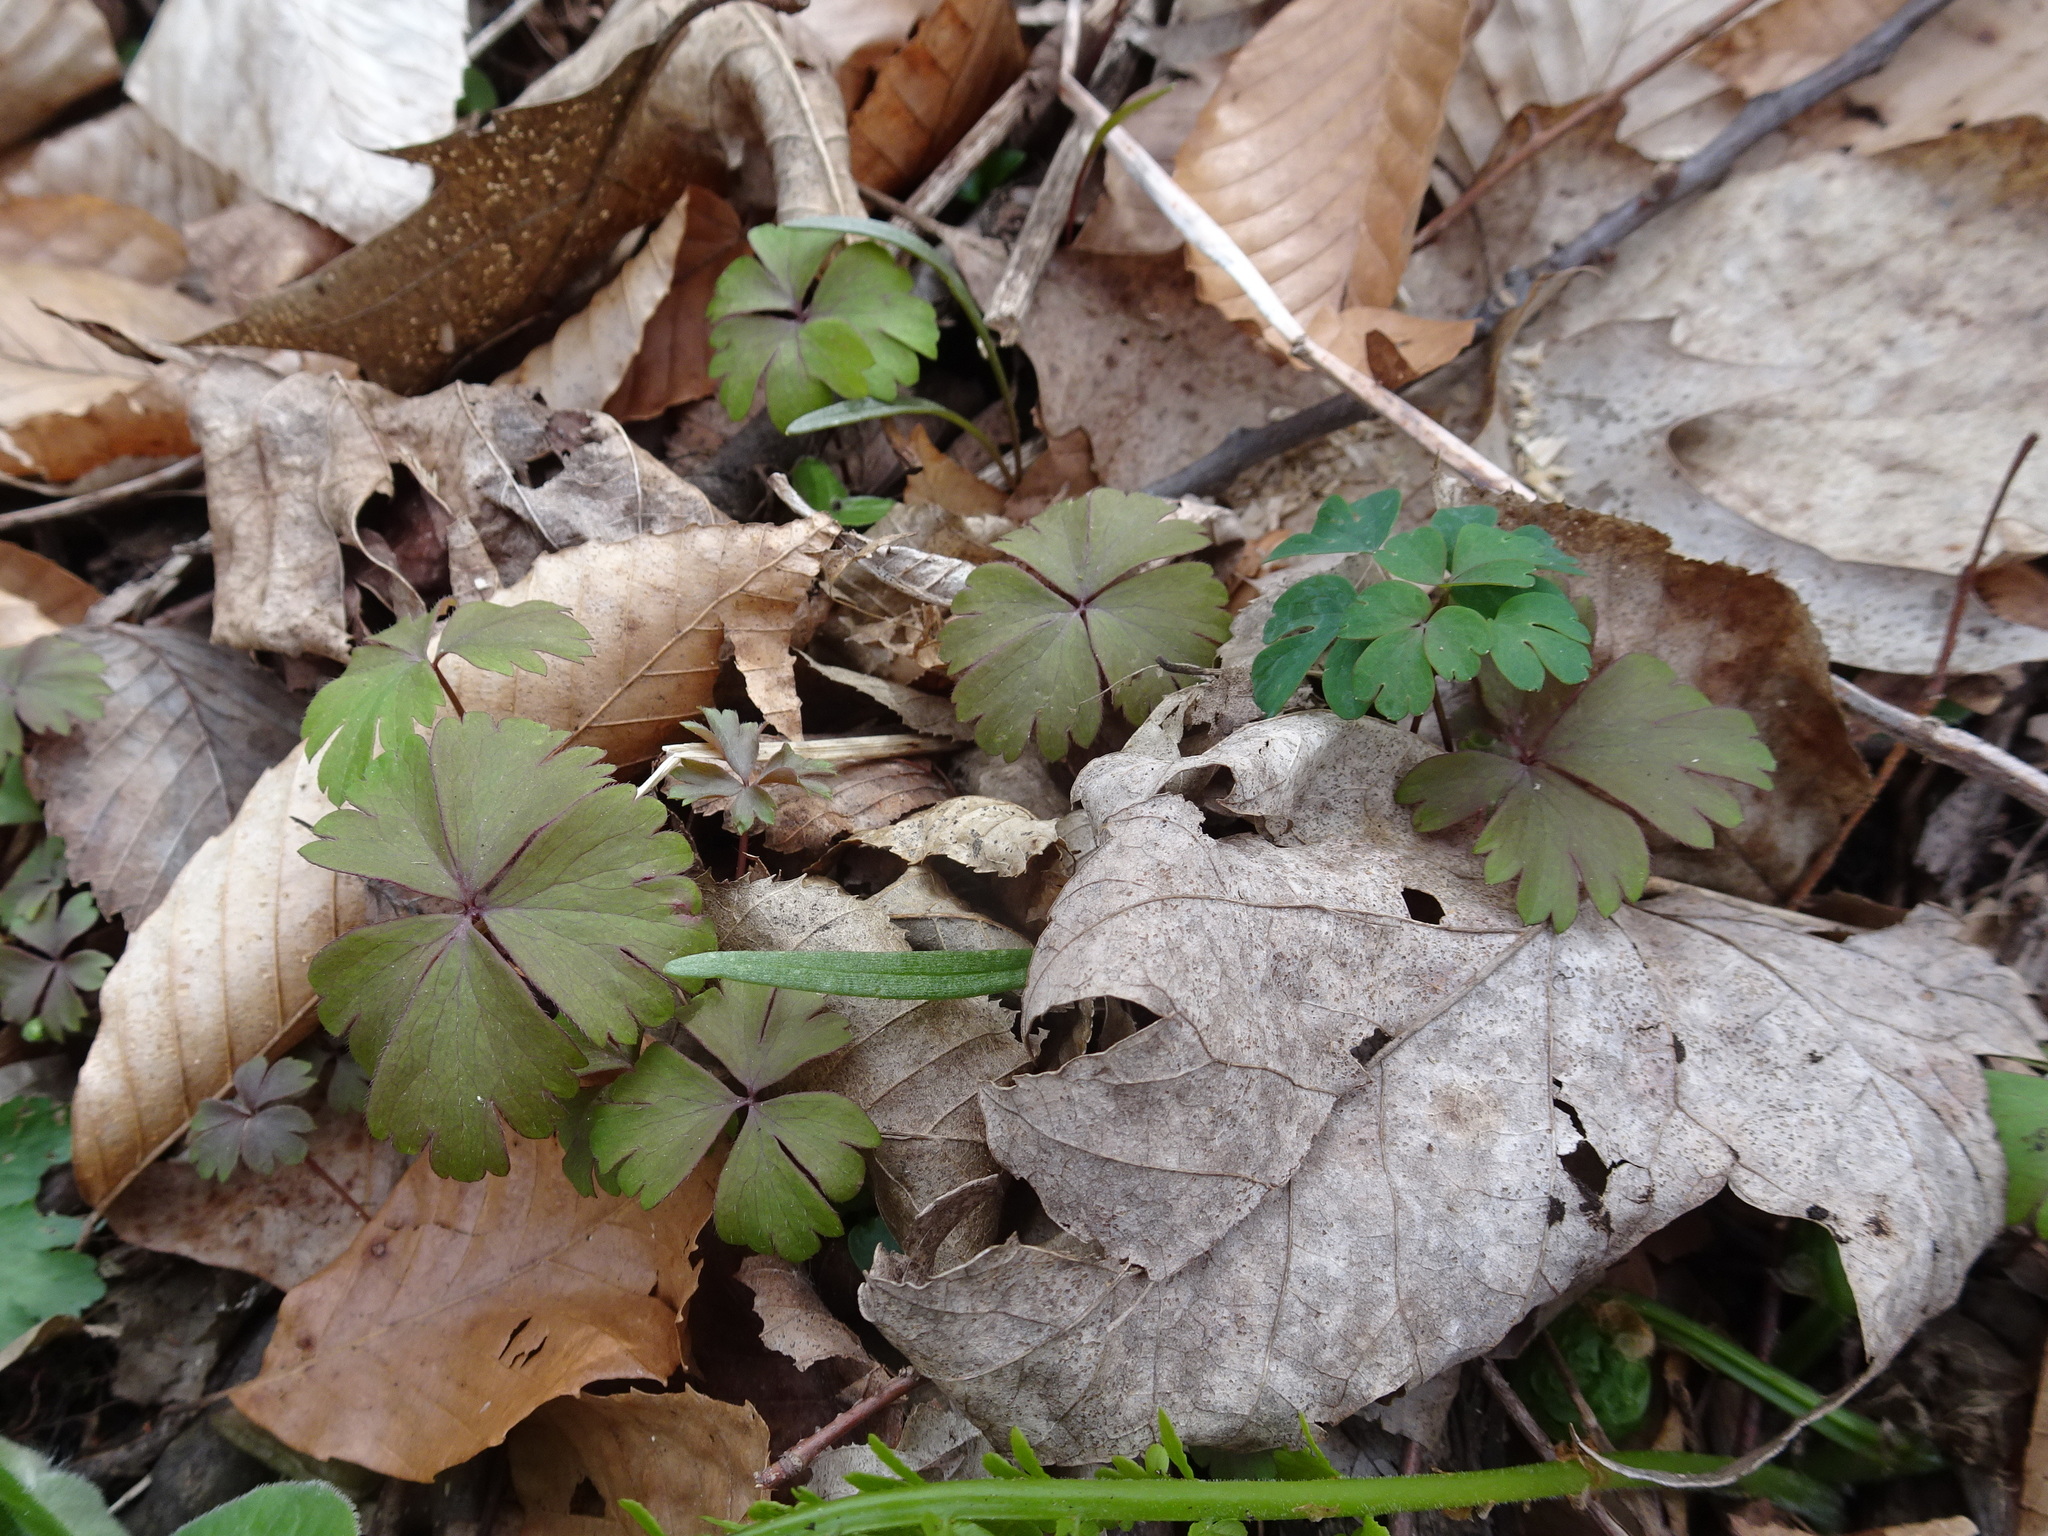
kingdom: Plantae
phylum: Tracheophyta
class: Magnoliopsida
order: Ranunculales
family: Ranunculaceae
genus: Anemone
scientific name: Anemone quinquefolia
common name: Wood anemone
